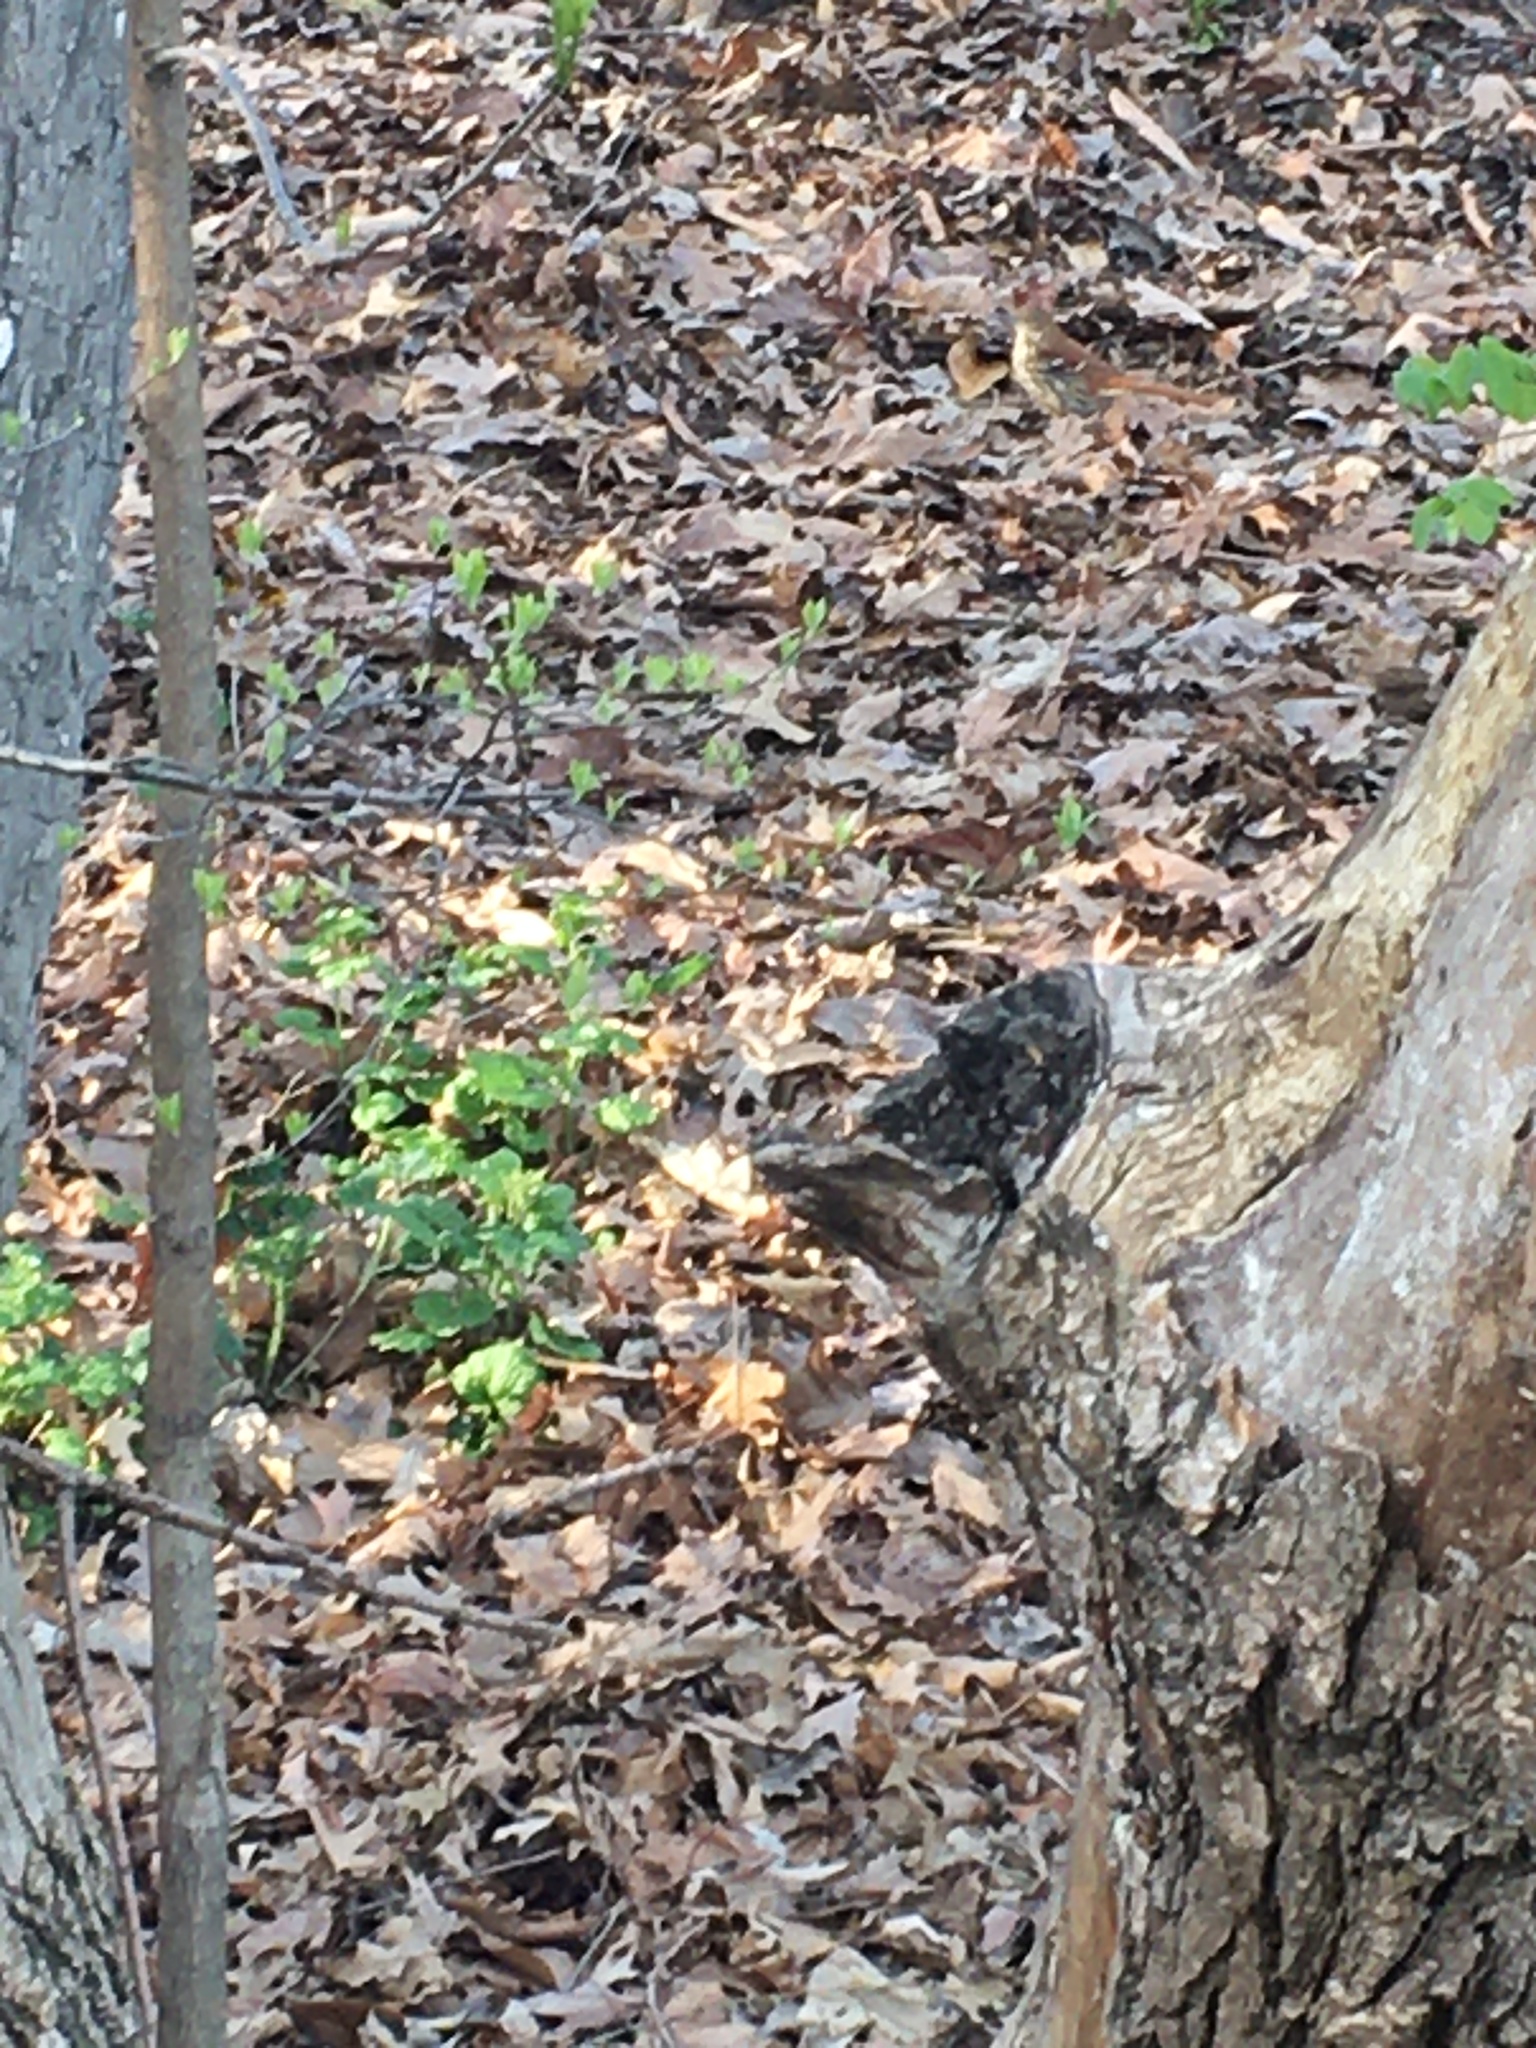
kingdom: Animalia
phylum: Chordata
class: Aves
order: Passeriformes
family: Mimidae
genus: Toxostoma
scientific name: Toxostoma rufum
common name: Brown thrasher
